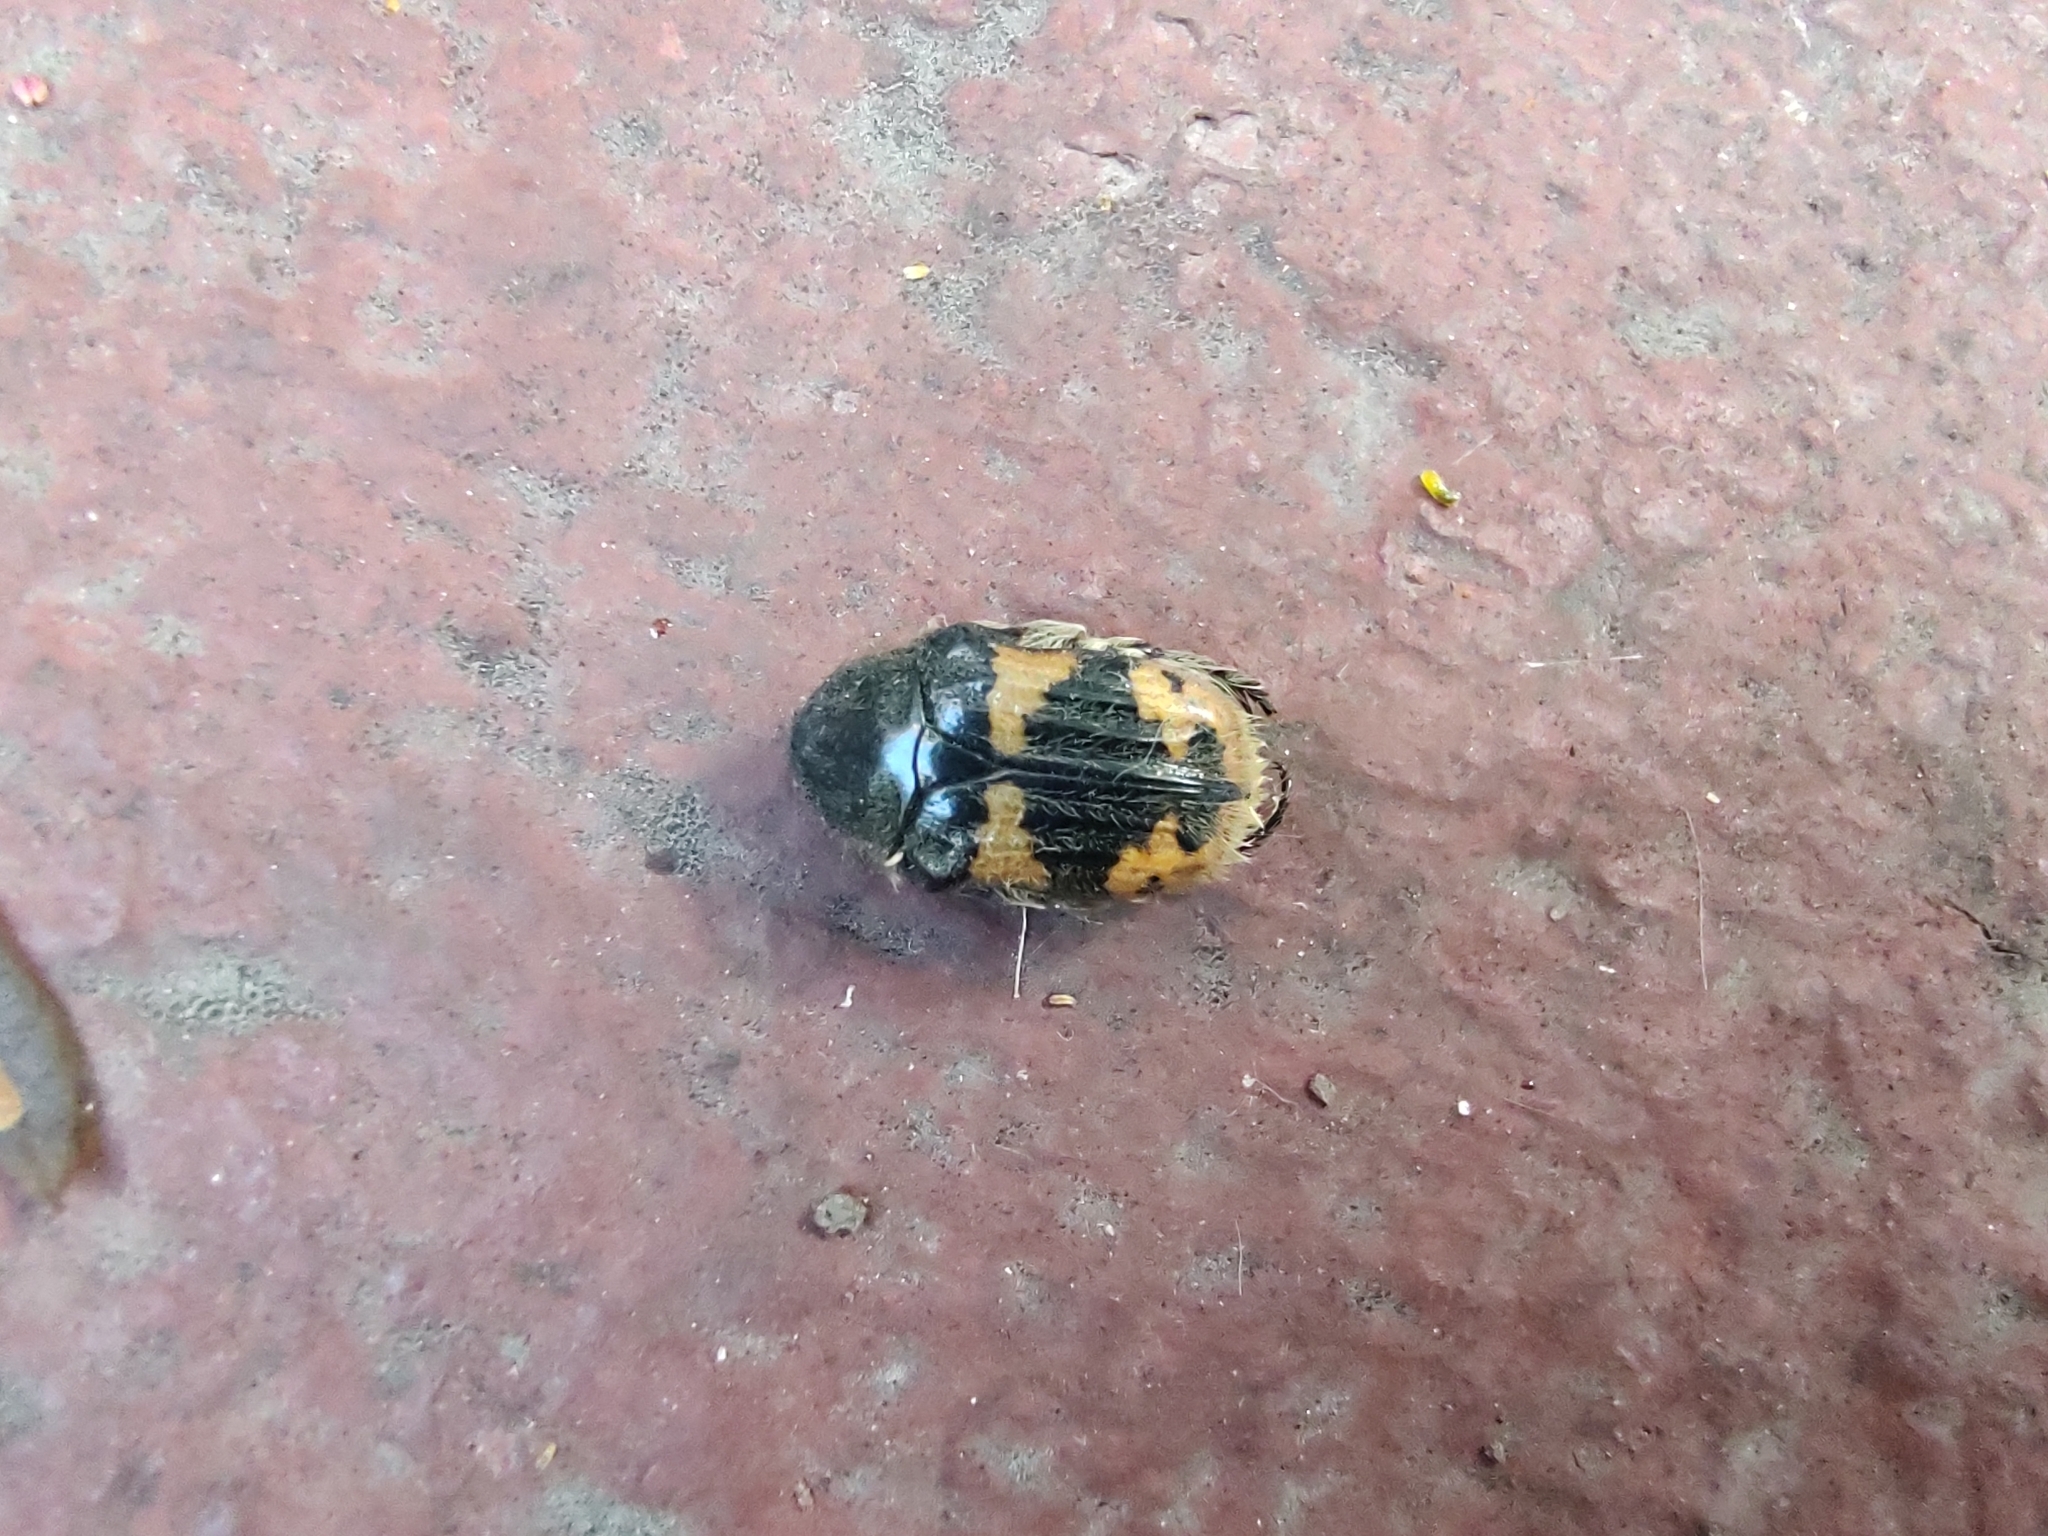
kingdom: Animalia
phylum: Arthropoda
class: Insecta
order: Coleoptera
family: Scarabaeidae
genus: Euphoria
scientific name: Euphoria basalis
